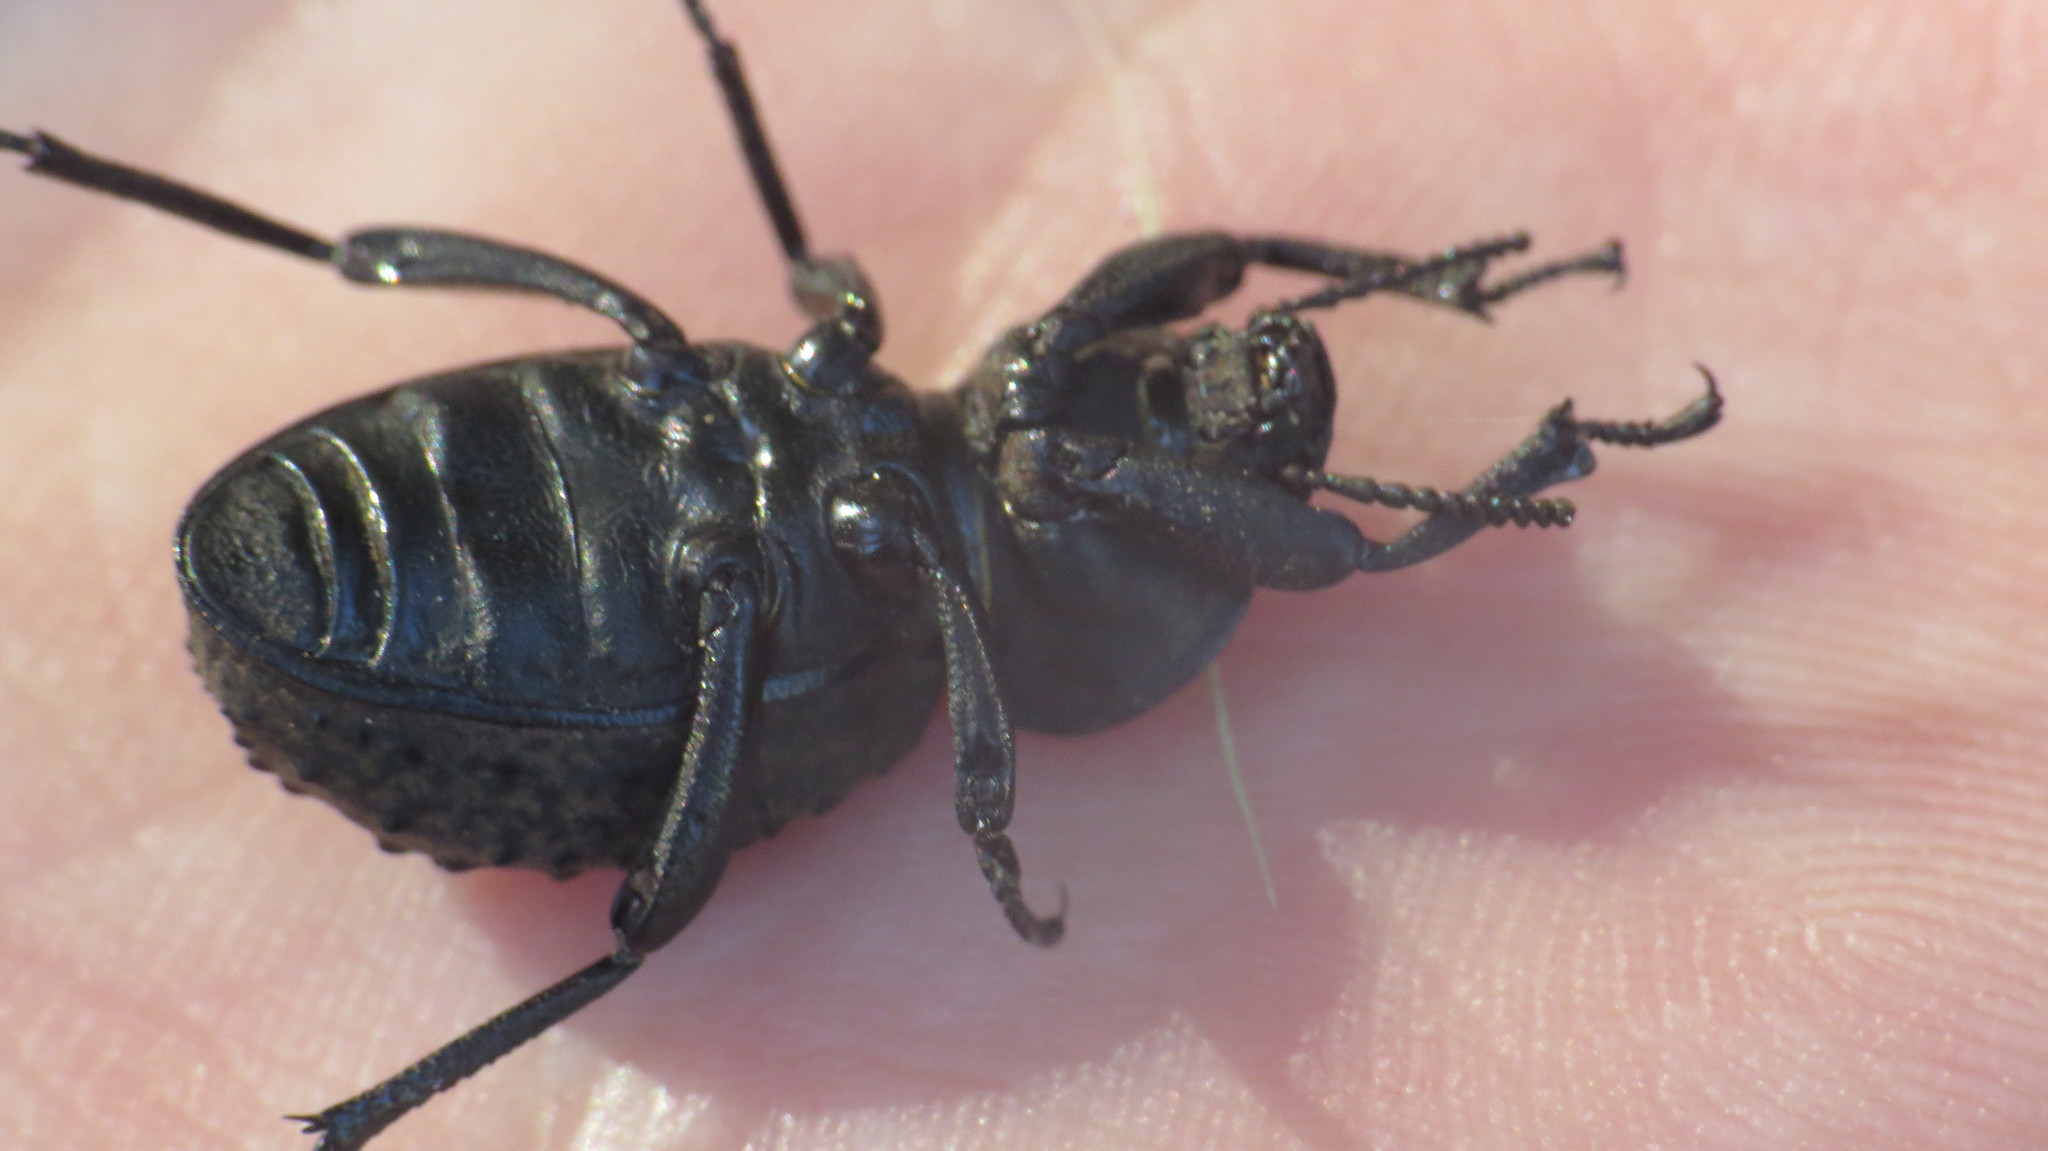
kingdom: Animalia
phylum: Arthropoda
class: Insecta
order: Coleoptera
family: Tenebrionidae
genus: Scotobius
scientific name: Scotobius pilularius
